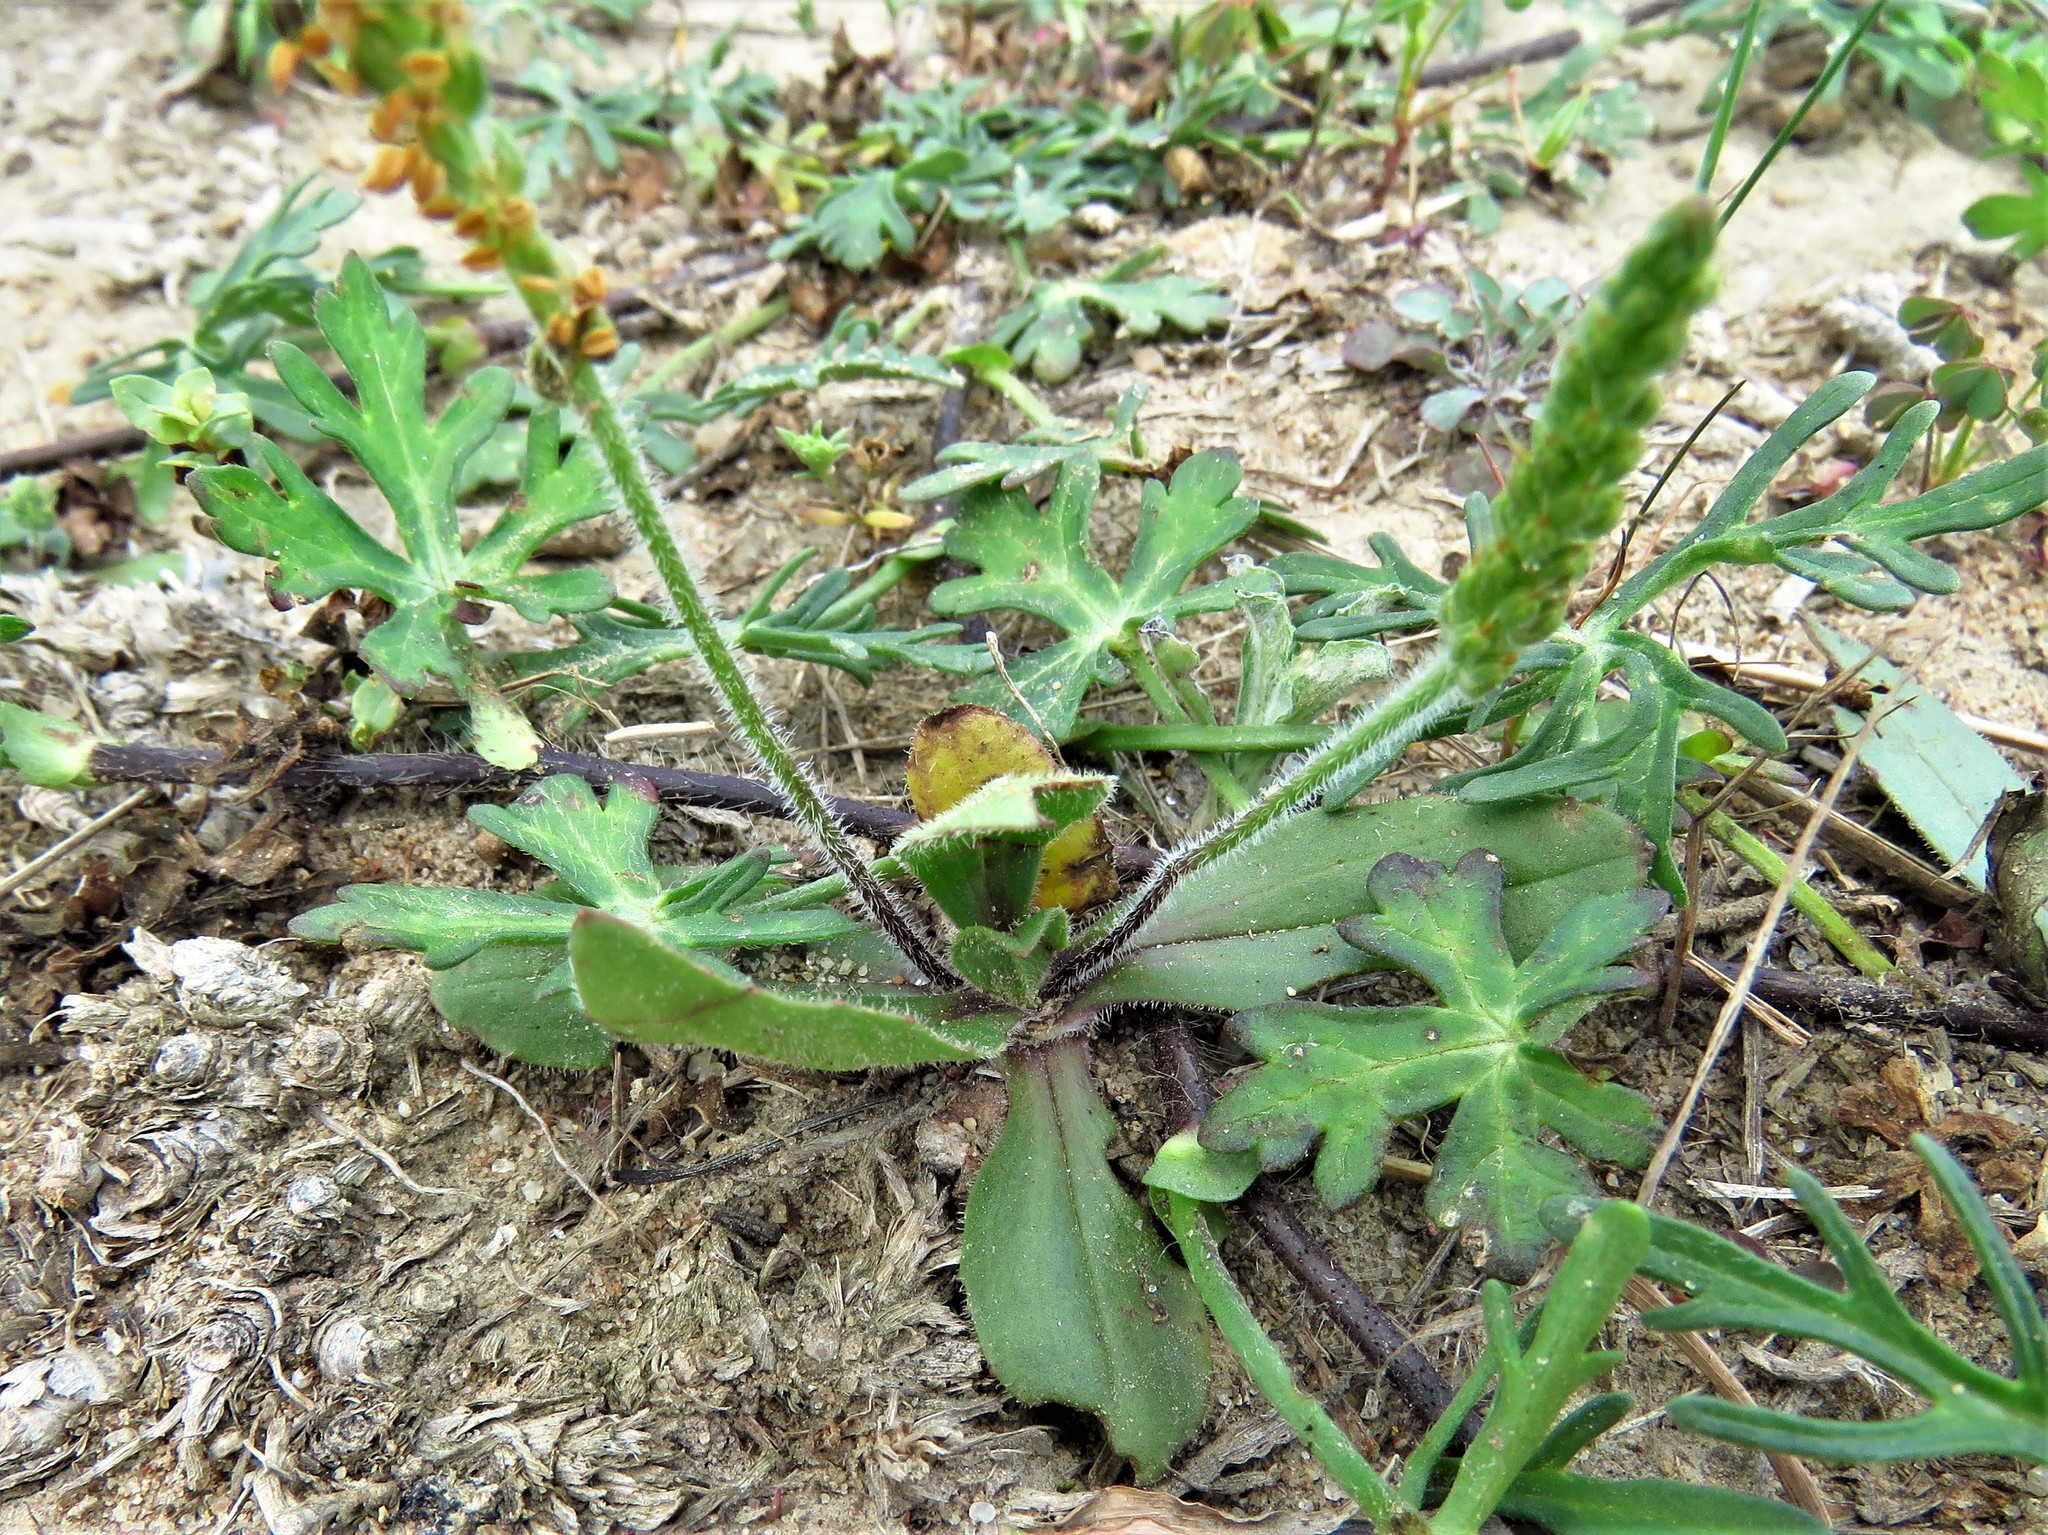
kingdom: Plantae
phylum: Tracheophyta
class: Magnoliopsida
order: Lamiales
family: Plantaginaceae
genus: Plantago
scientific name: Plantago virginica
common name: Hoary plantain
